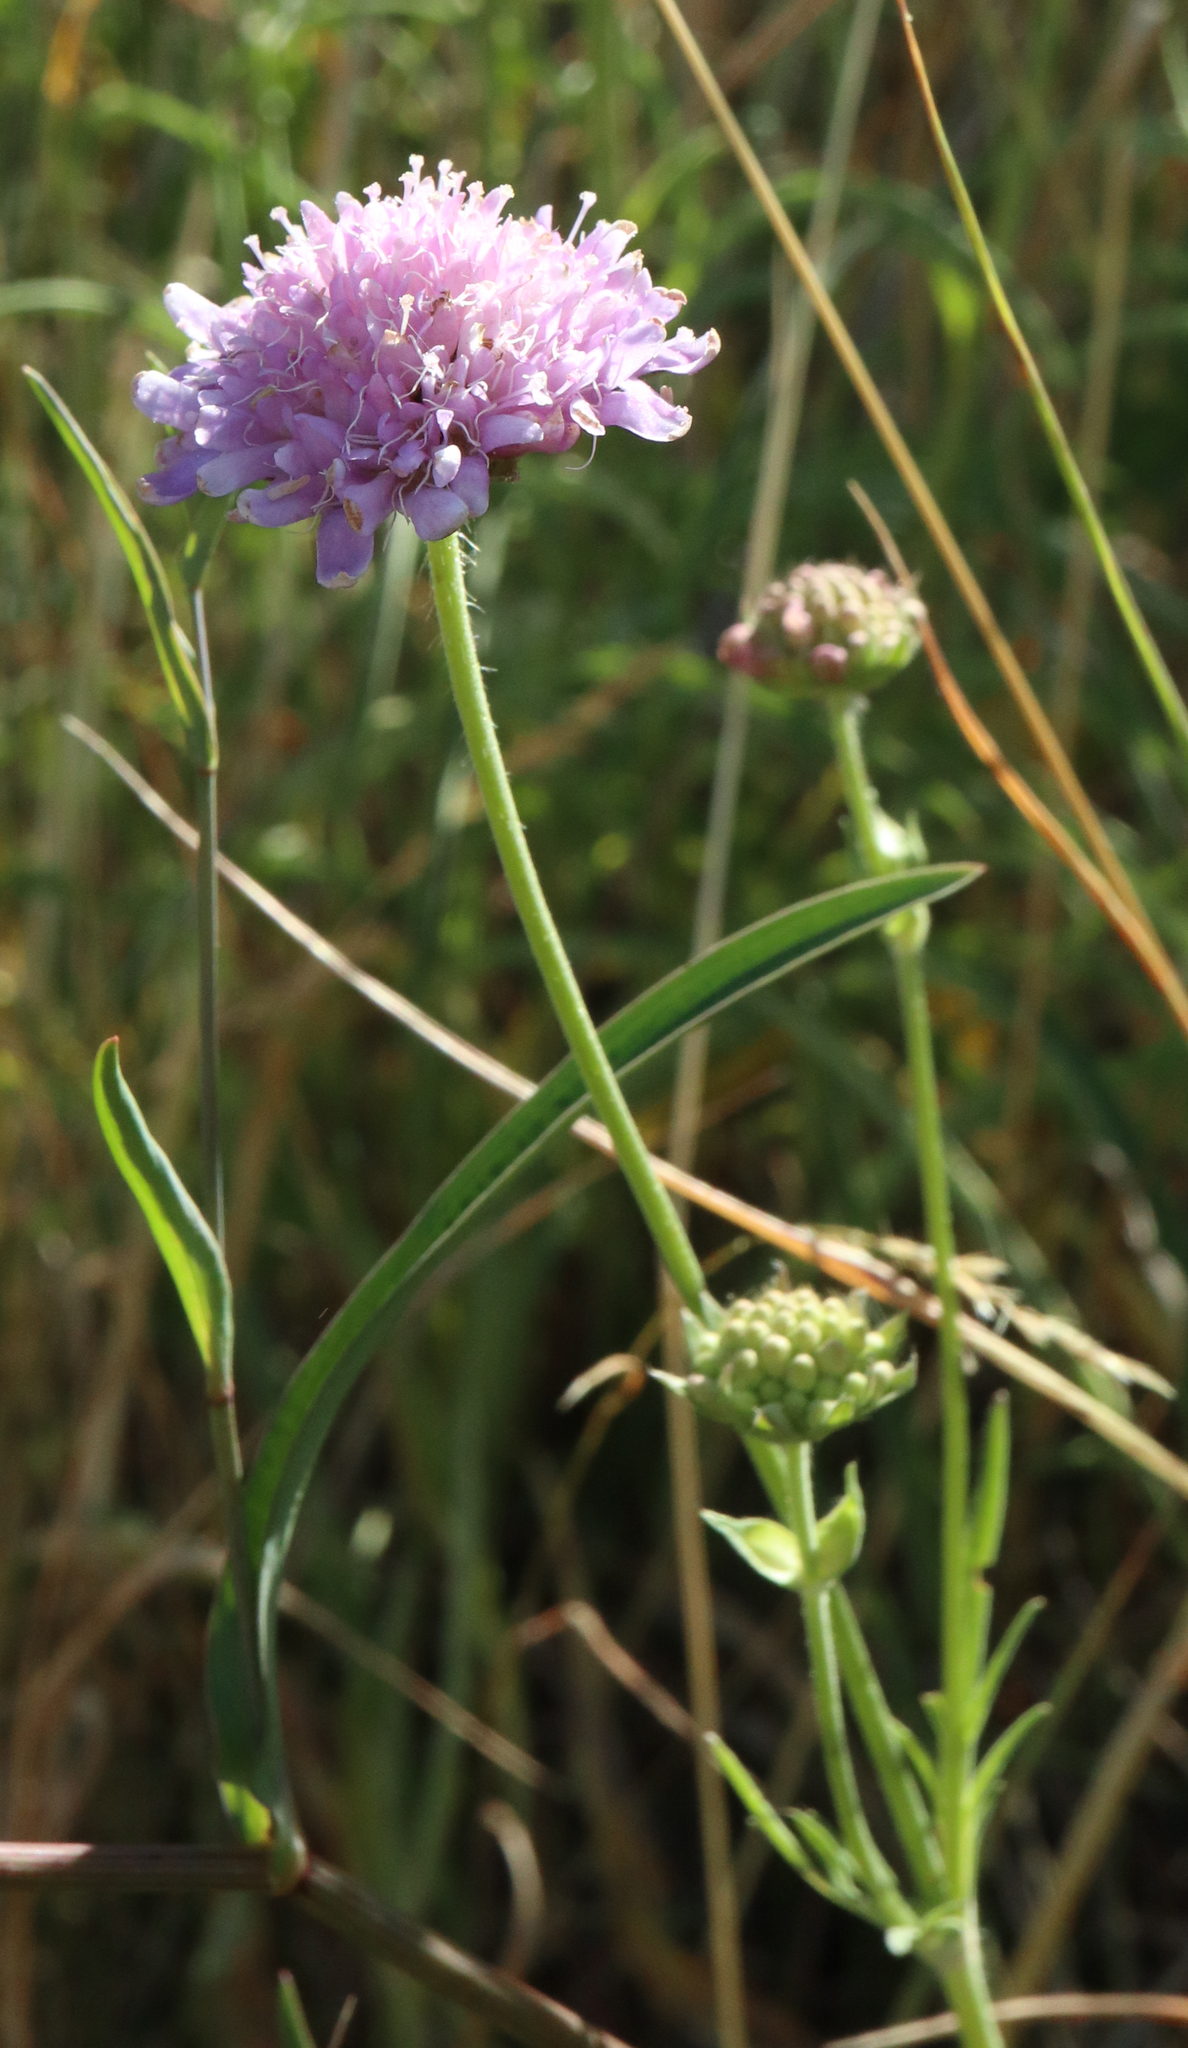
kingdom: Plantae
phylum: Tracheophyta
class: Magnoliopsida
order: Dipsacales
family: Caprifoliaceae
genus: Knautia
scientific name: Knautia arvensis
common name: Field scabiosa
